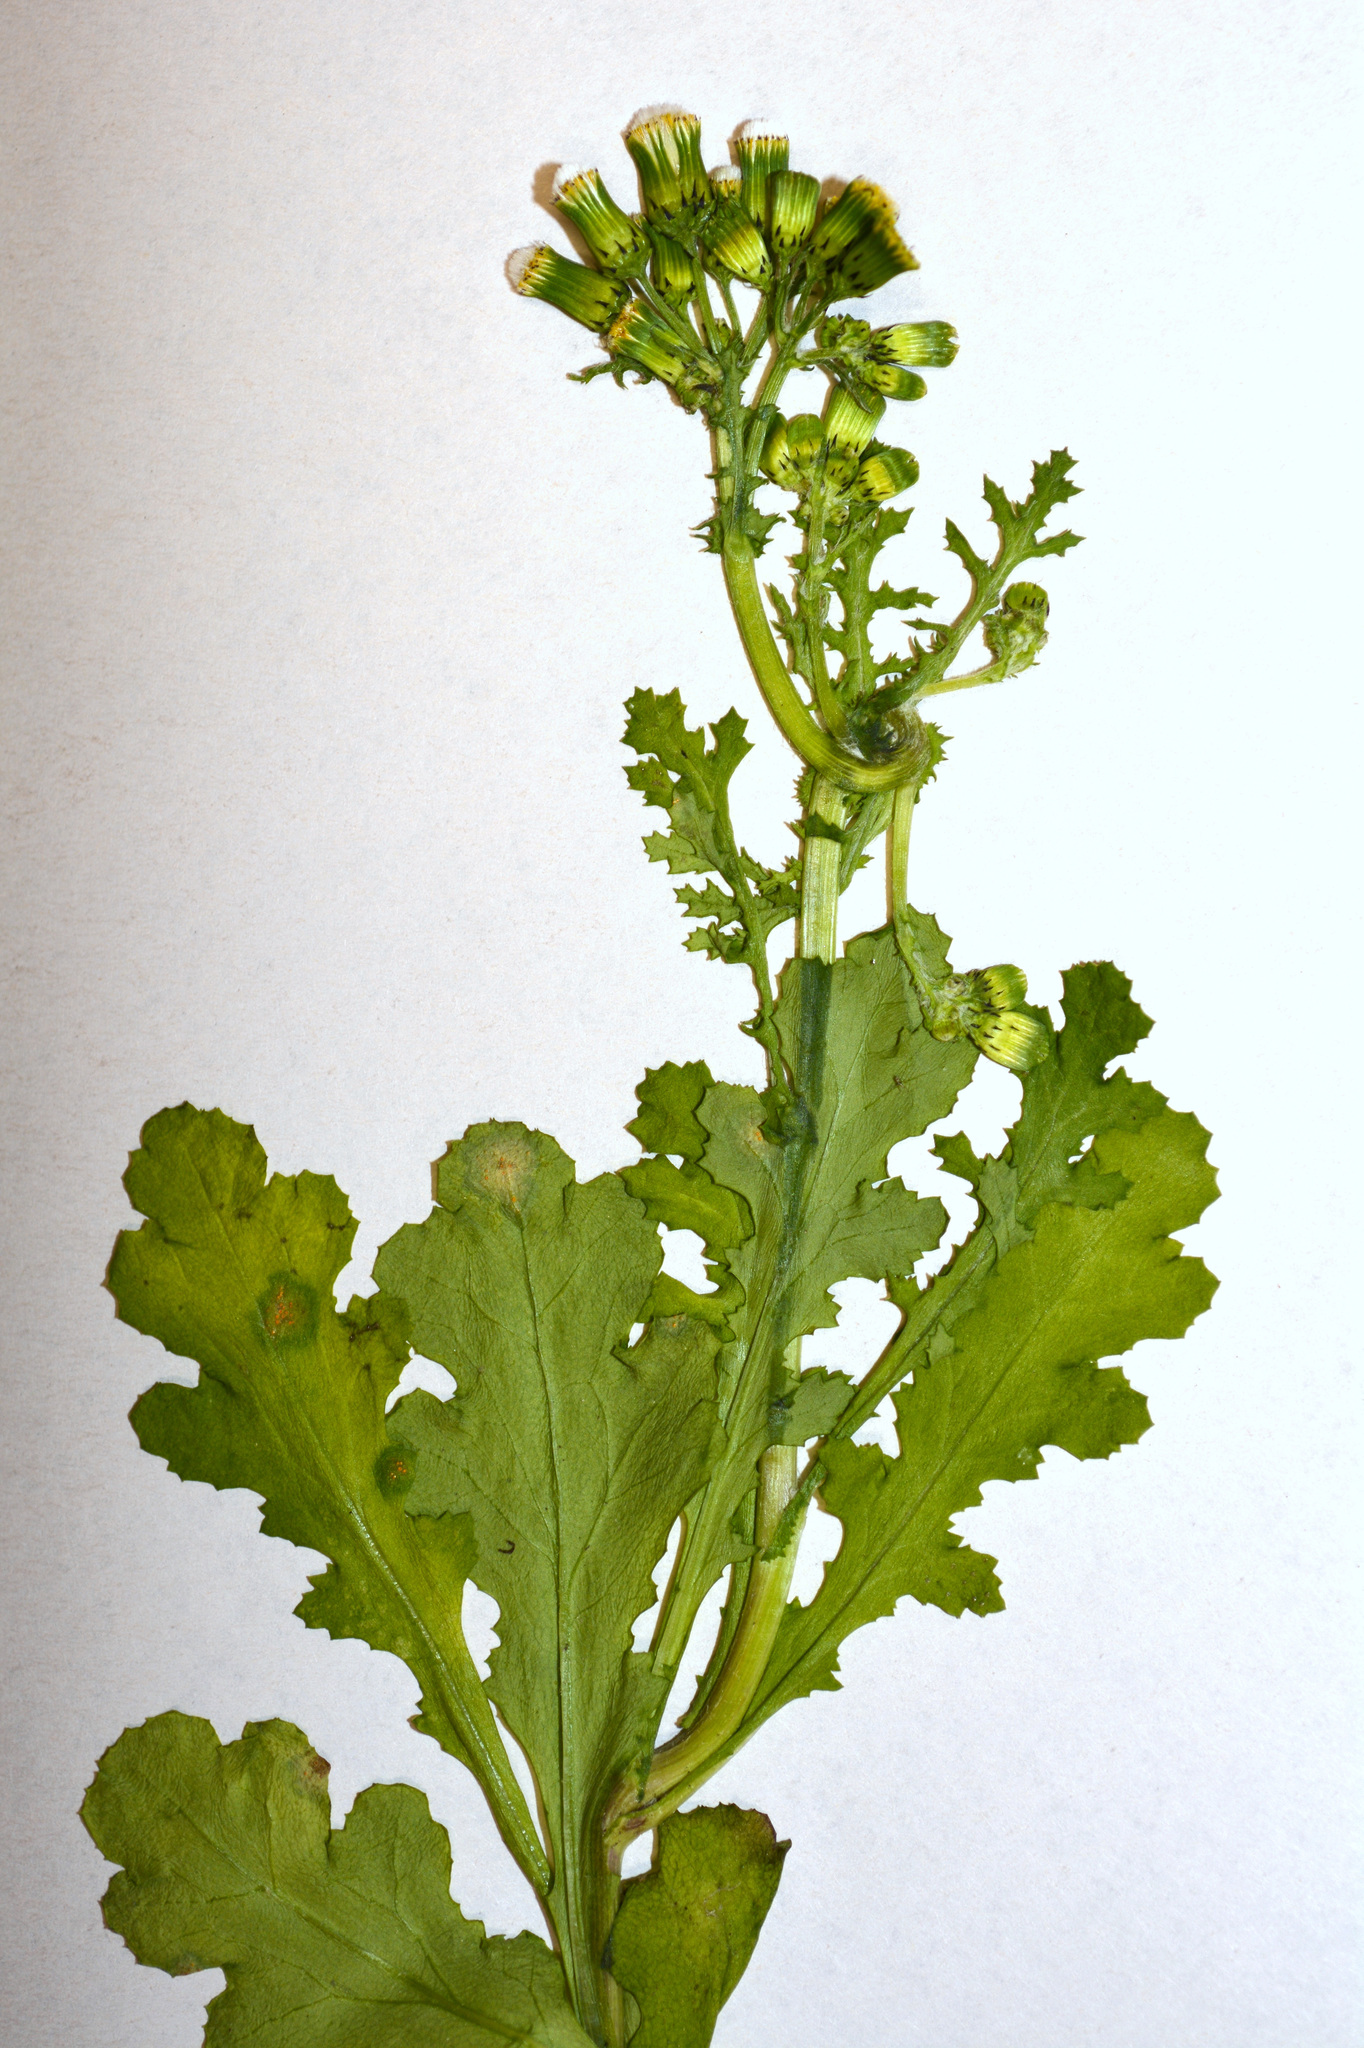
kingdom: Plantae
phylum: Tracheophyta
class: Magnoliopsida
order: Asterales
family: Asteraceae
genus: Senecio
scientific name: Senecio vulgaris
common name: Old-man-in-the-spring
